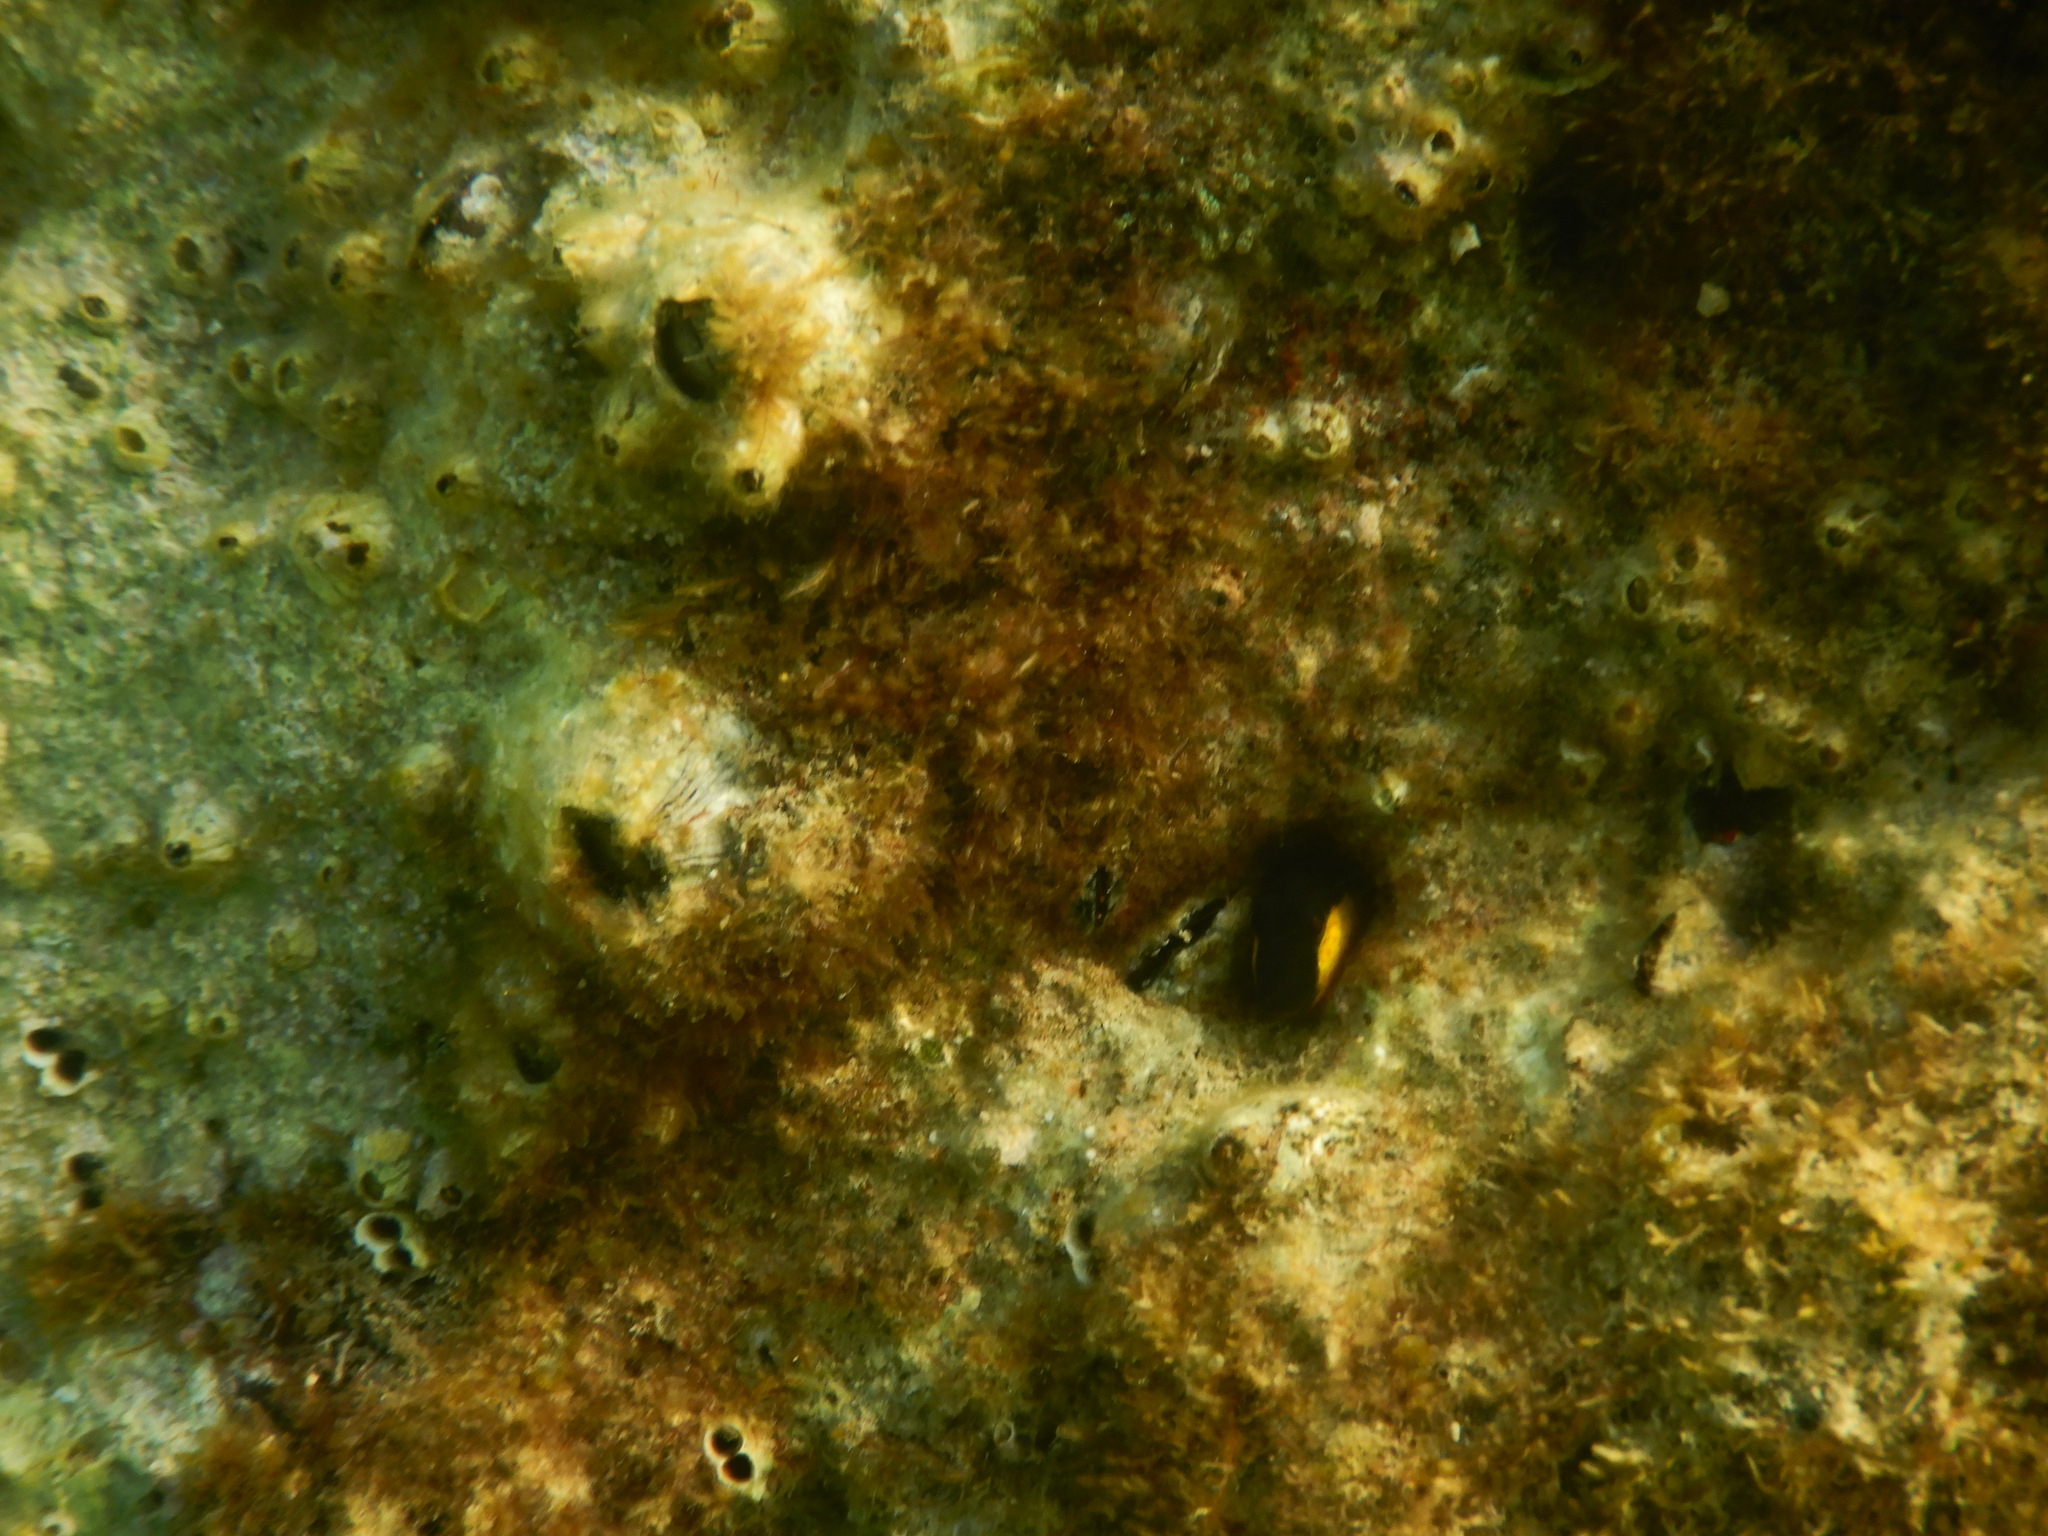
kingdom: Animalia
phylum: Chordata
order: Perciformes
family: Blenniidae
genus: Microlipophrys
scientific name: Microlipophrys canevae
